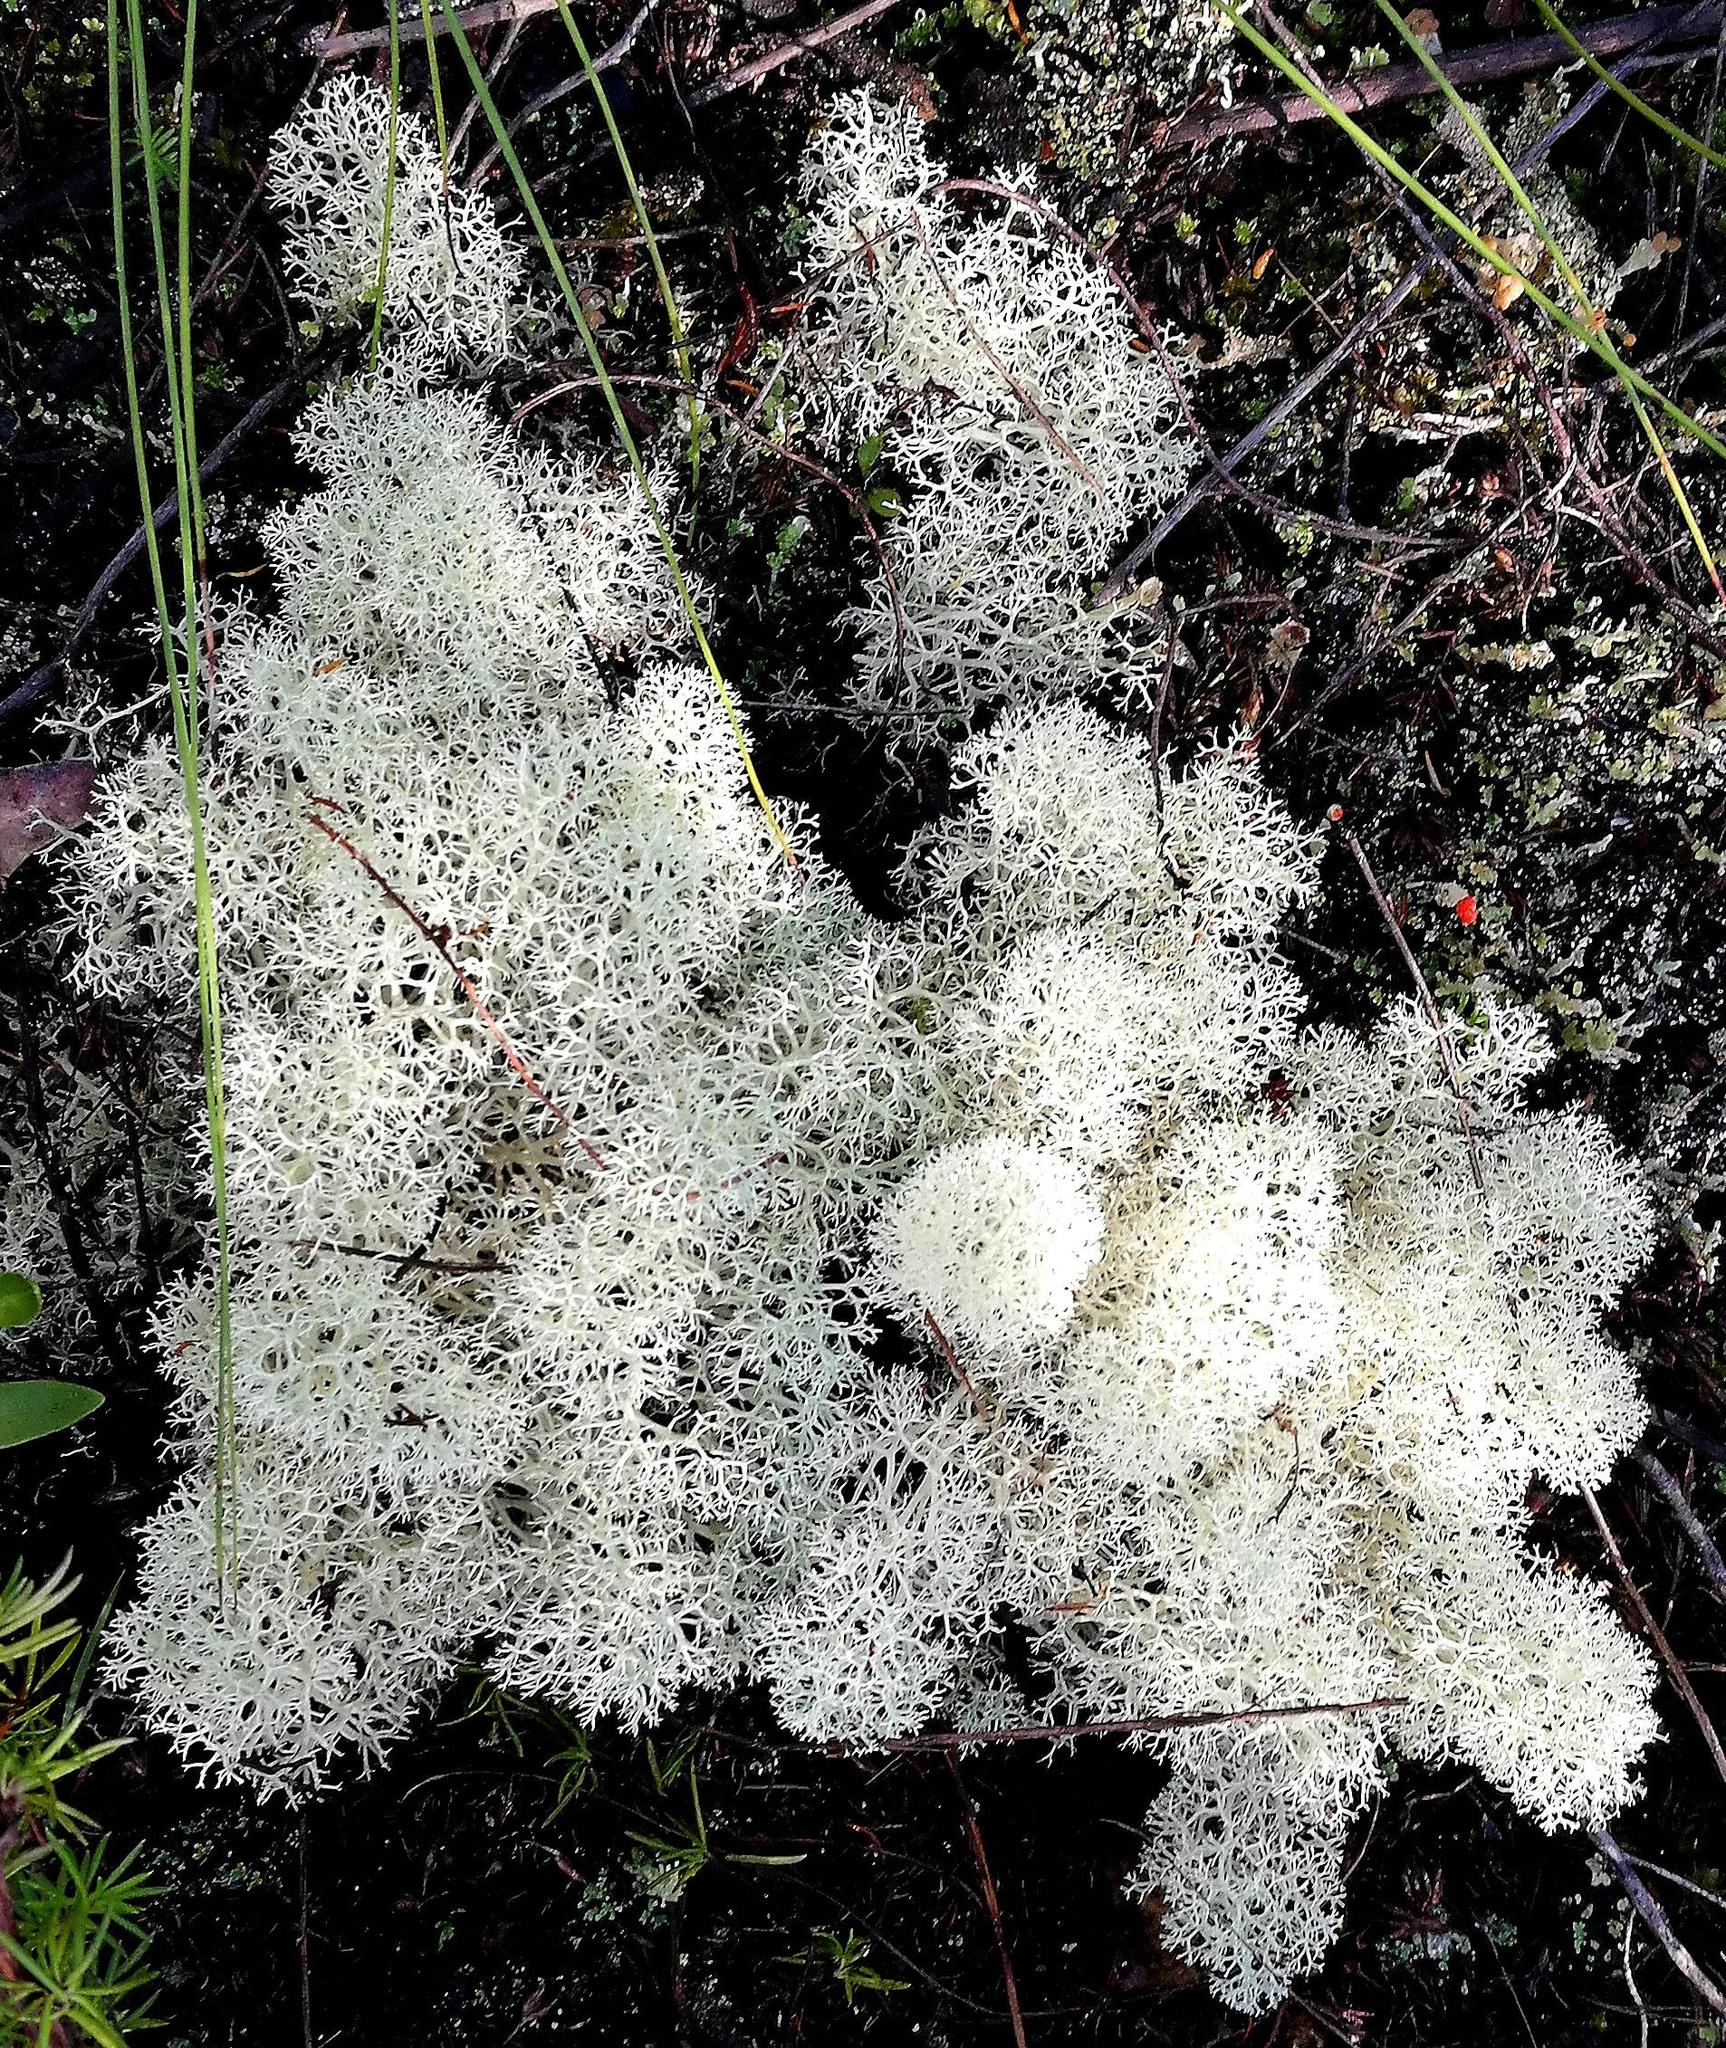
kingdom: Fungi
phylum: Ascomycota
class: Lecanoromycetes
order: Lecanorales
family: Cladoniaceae
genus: Cladonia
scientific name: Cladonia confusa
